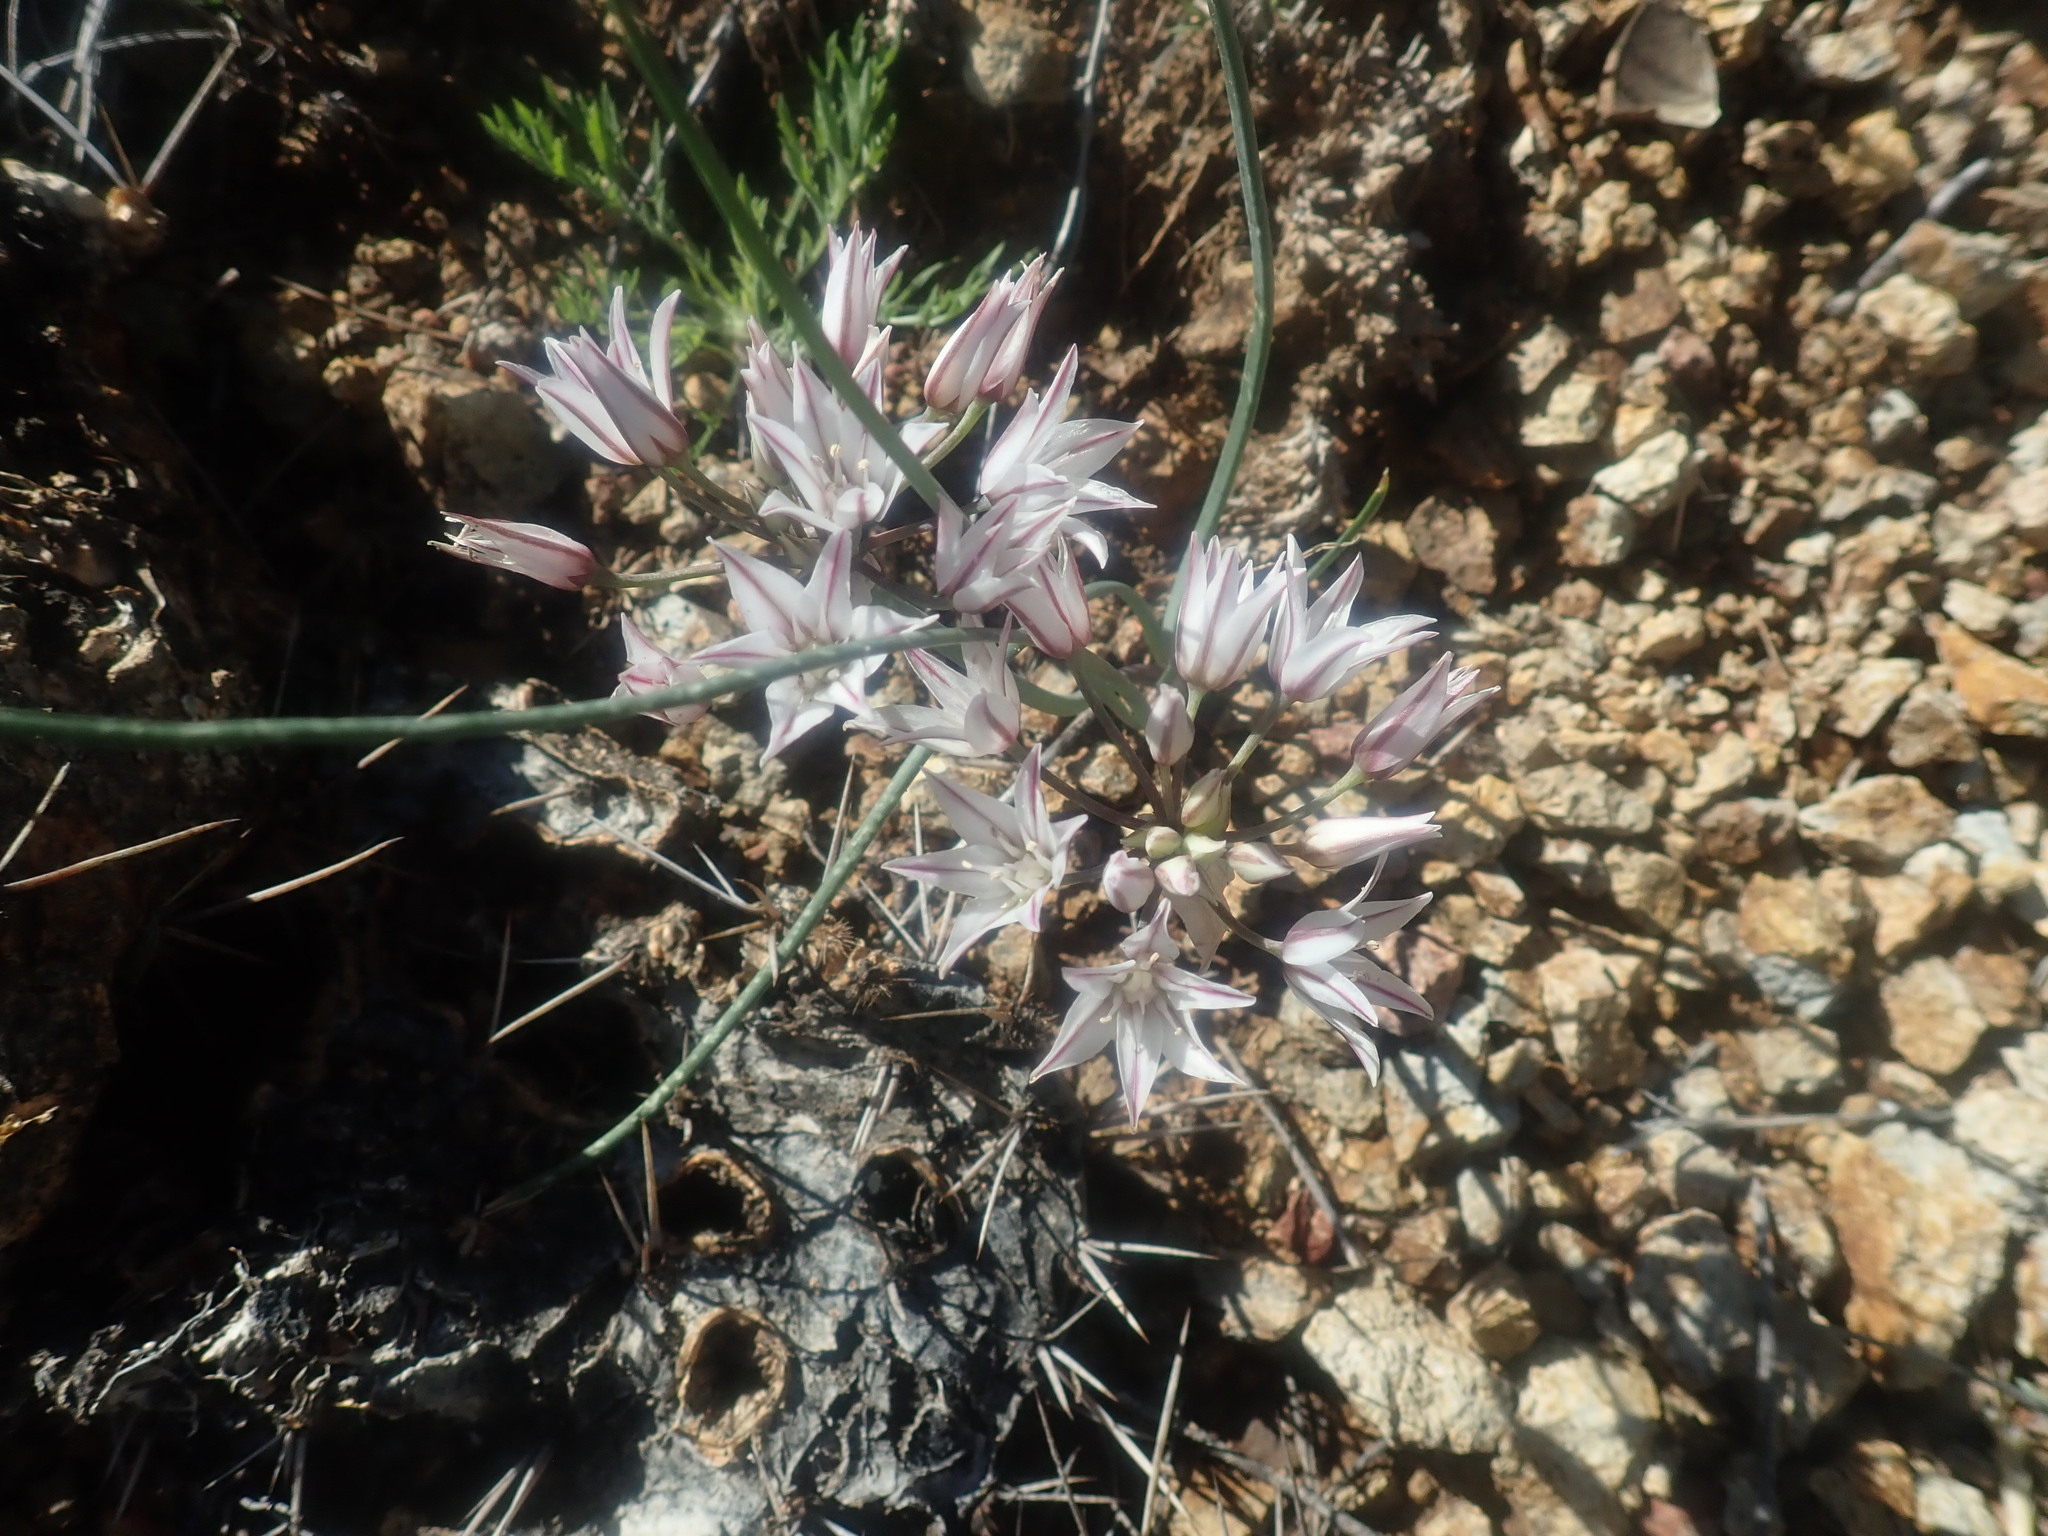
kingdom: Plantae
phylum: Tracheophyta
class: Liliopsida
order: Asparagales
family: Amaryllidaceae
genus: Allium
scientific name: Allium macropetalum
